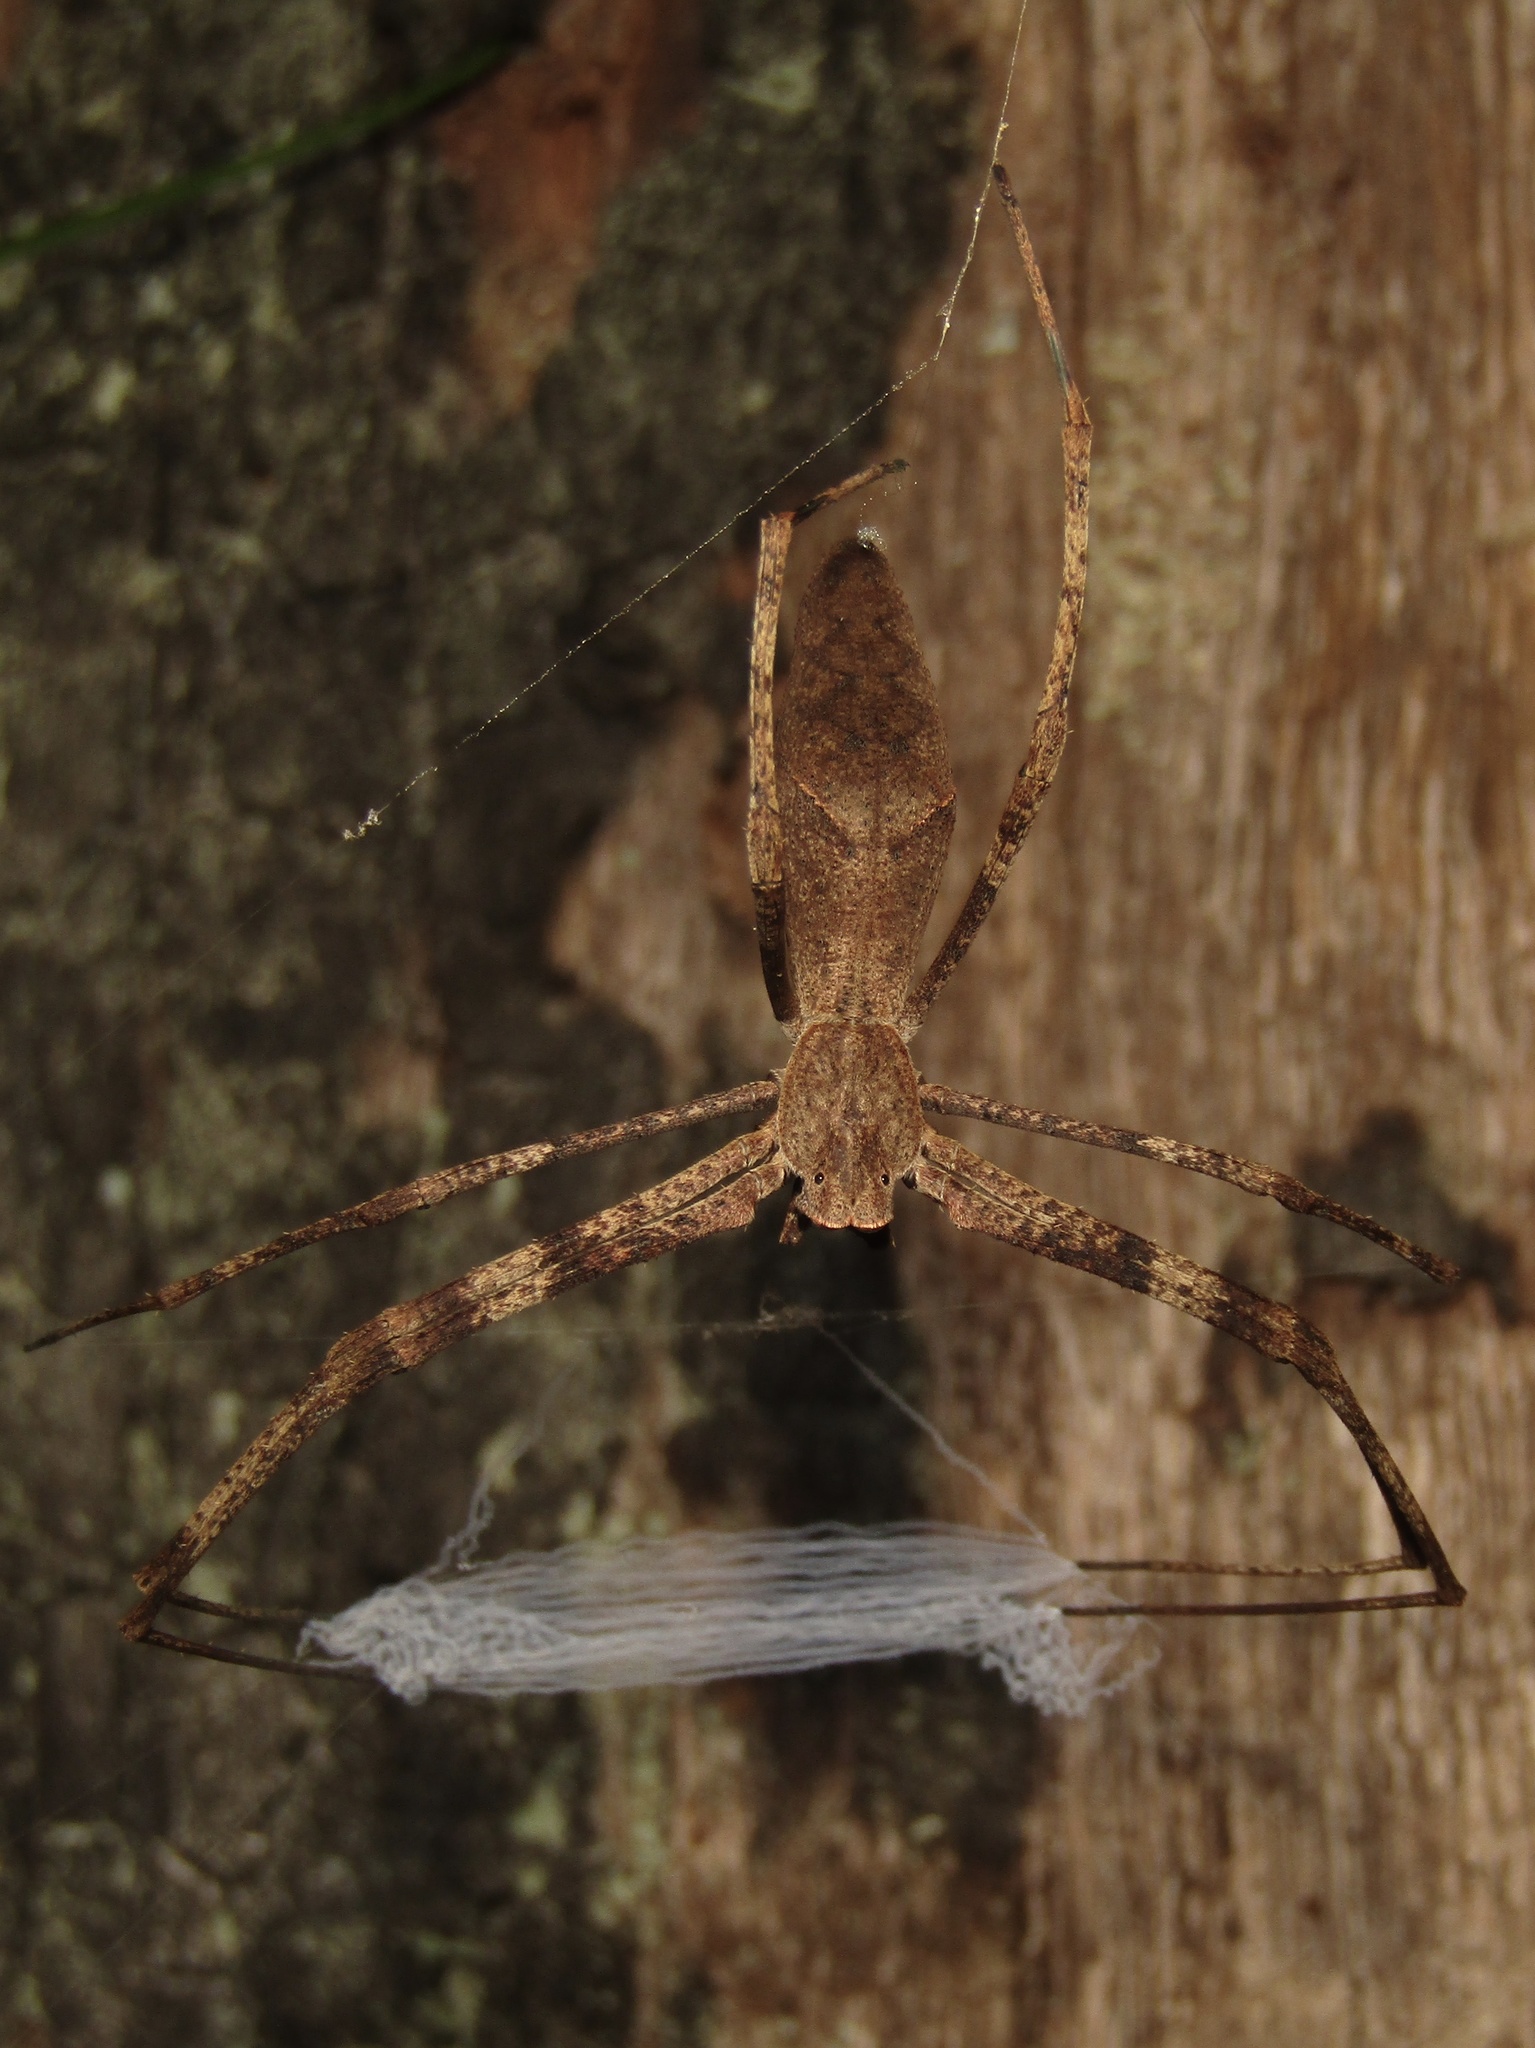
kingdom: Animalia
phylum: Arthropoda
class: Arachnida
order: Araneae
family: Deinopidae
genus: Deinopis
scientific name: Deinopis subrufa
